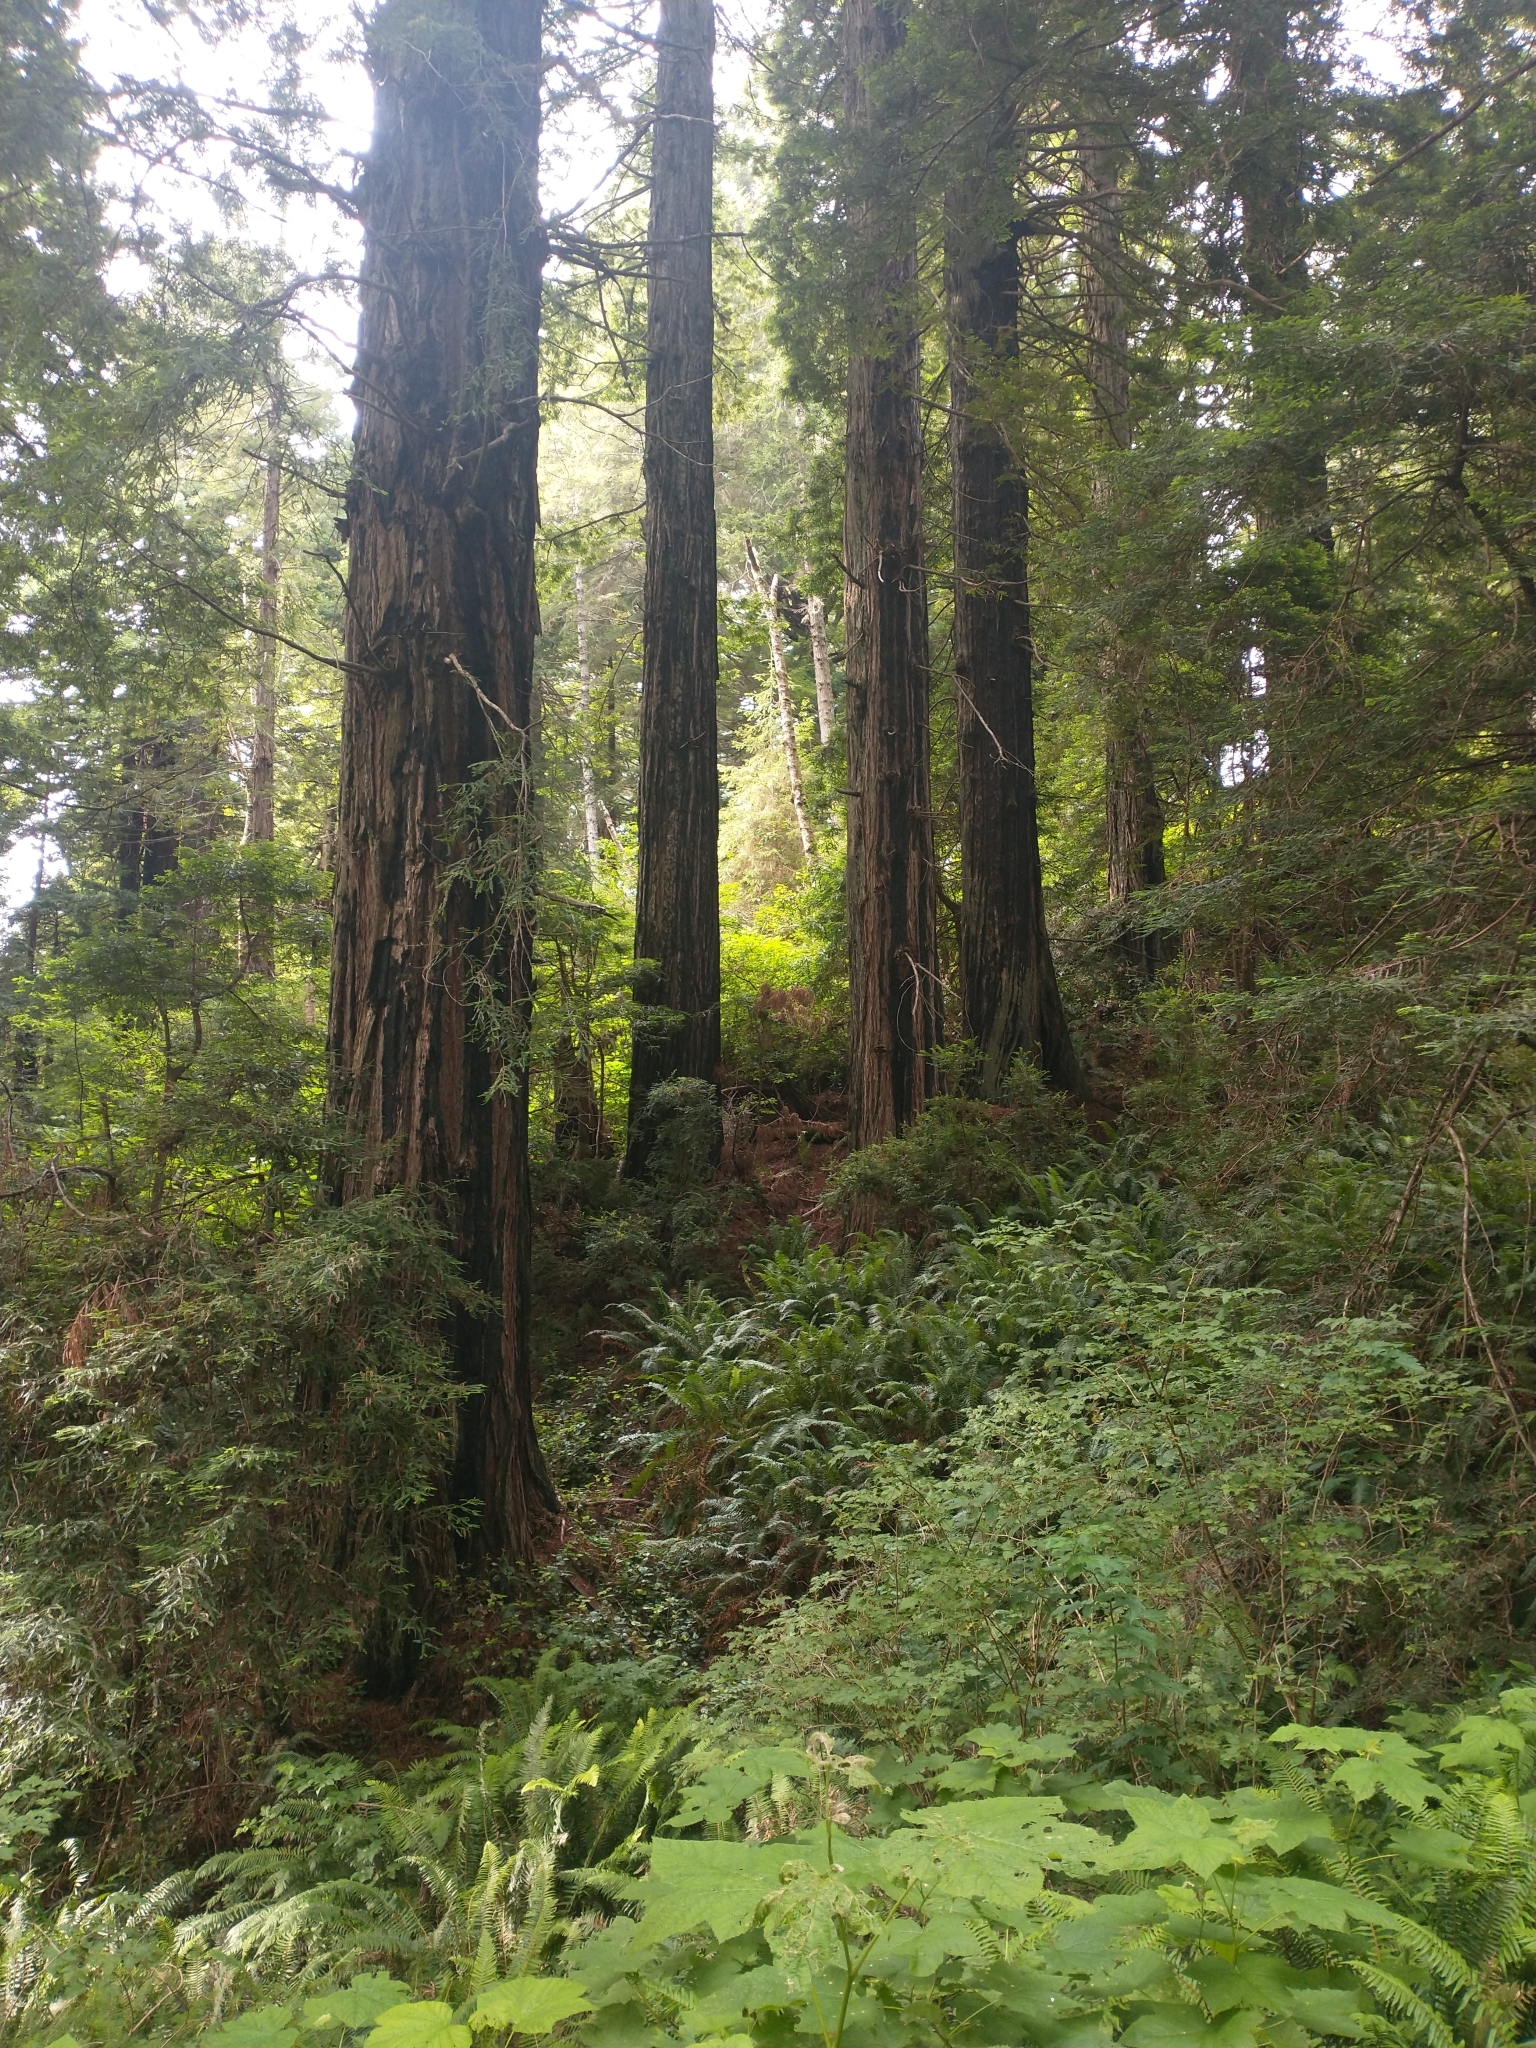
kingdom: Plantae
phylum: Tracheophyta
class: Pinopsida
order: Pinales
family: Cupressaceae
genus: Sequoia
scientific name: Sequoia sempervirens
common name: Coast redwood
